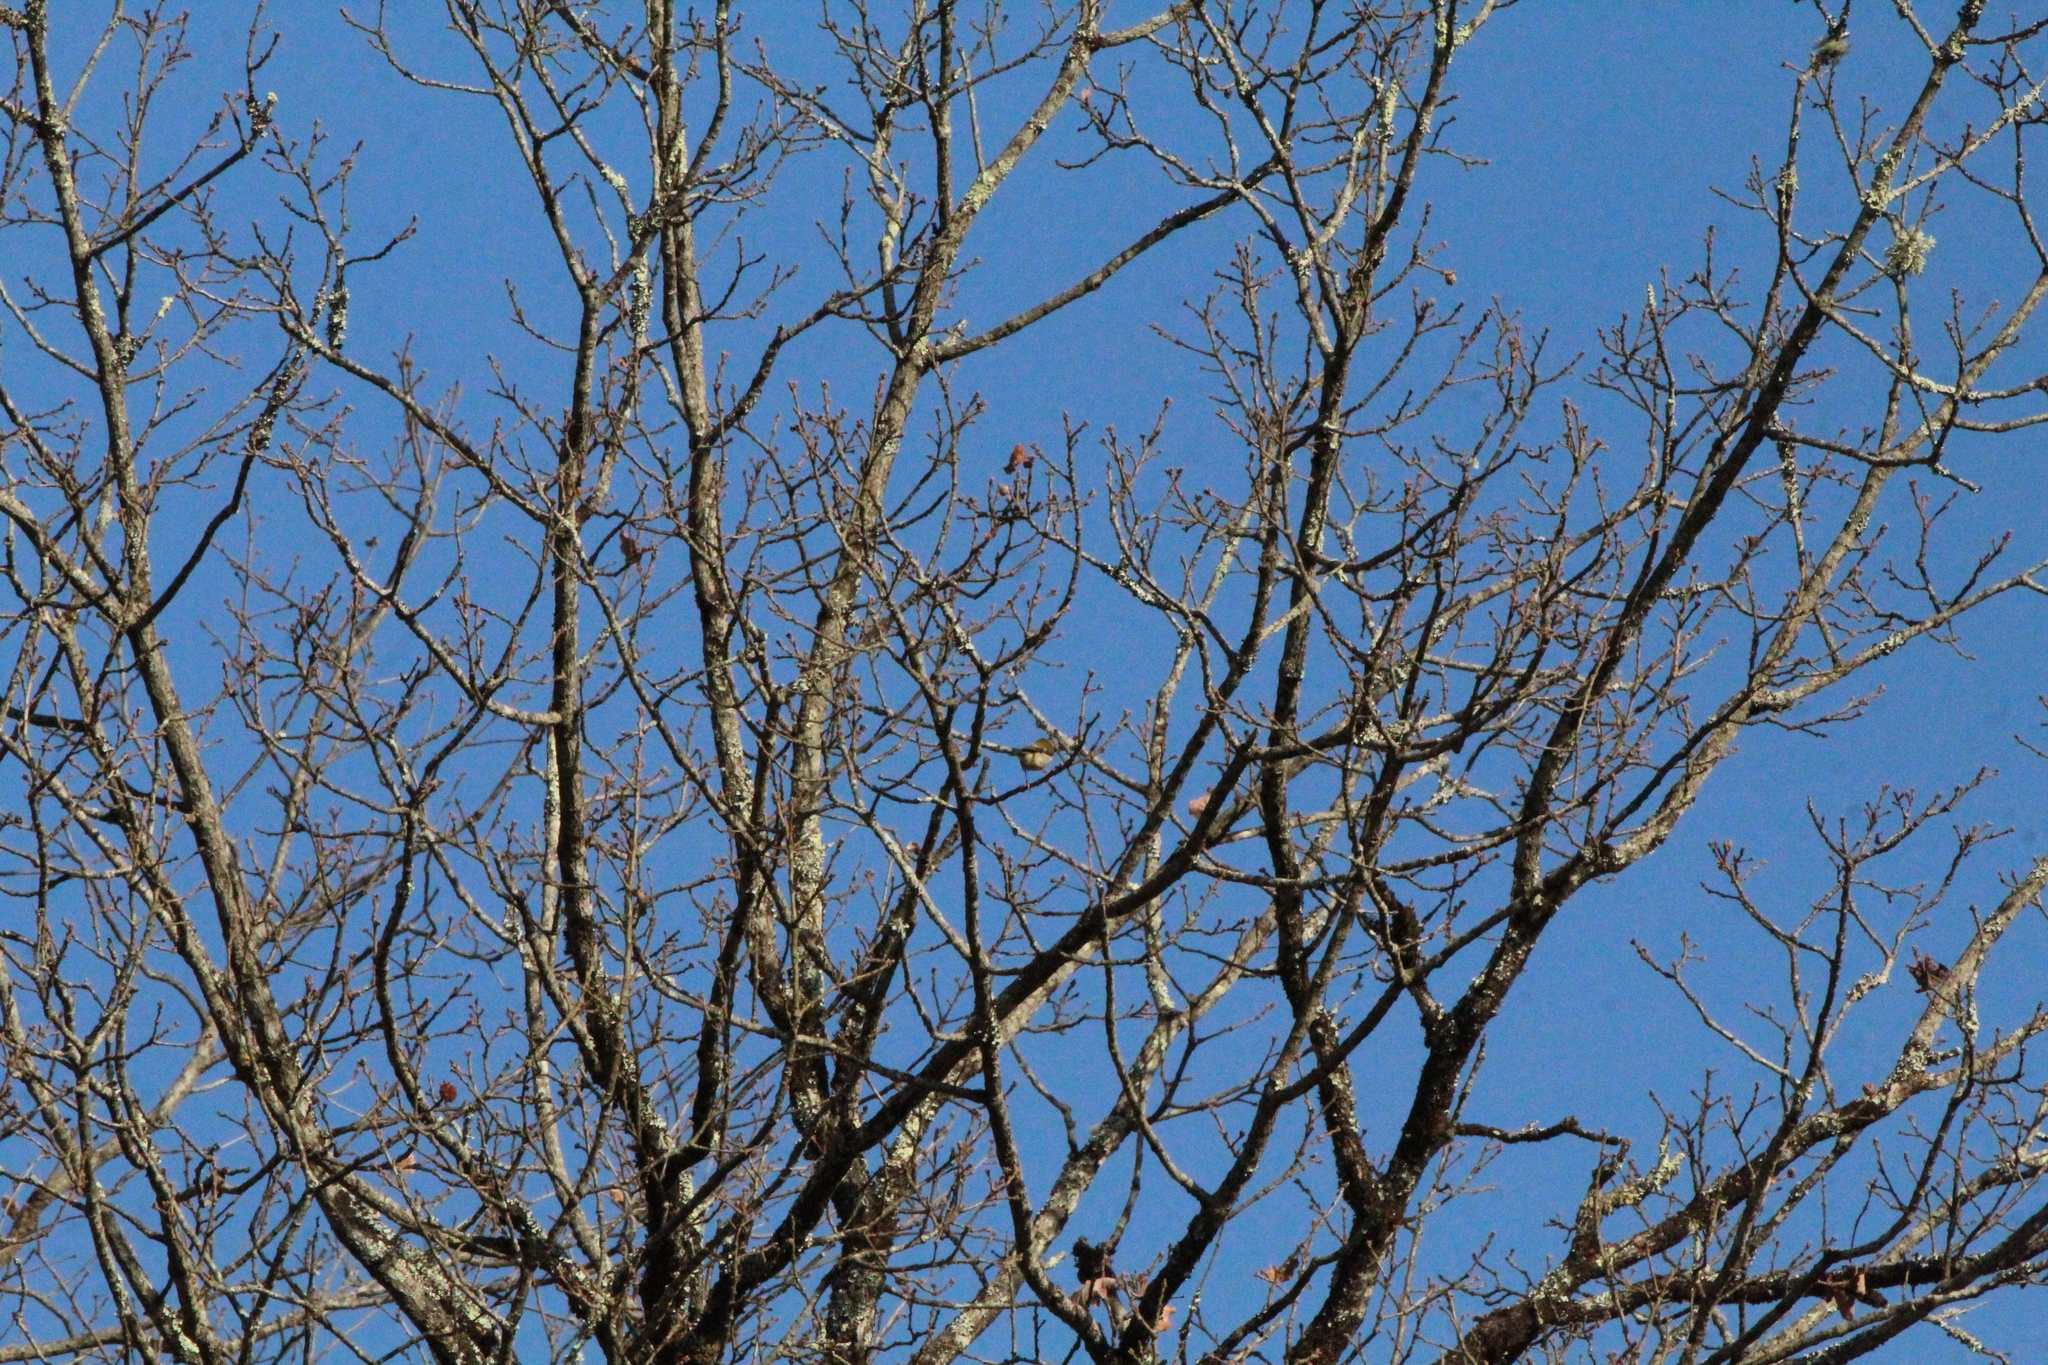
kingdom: Animalia
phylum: Chordata
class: Aves
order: Passeriformes
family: Regulidae
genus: Regulus
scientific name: Regulus ignicapilla
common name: Firecrest
